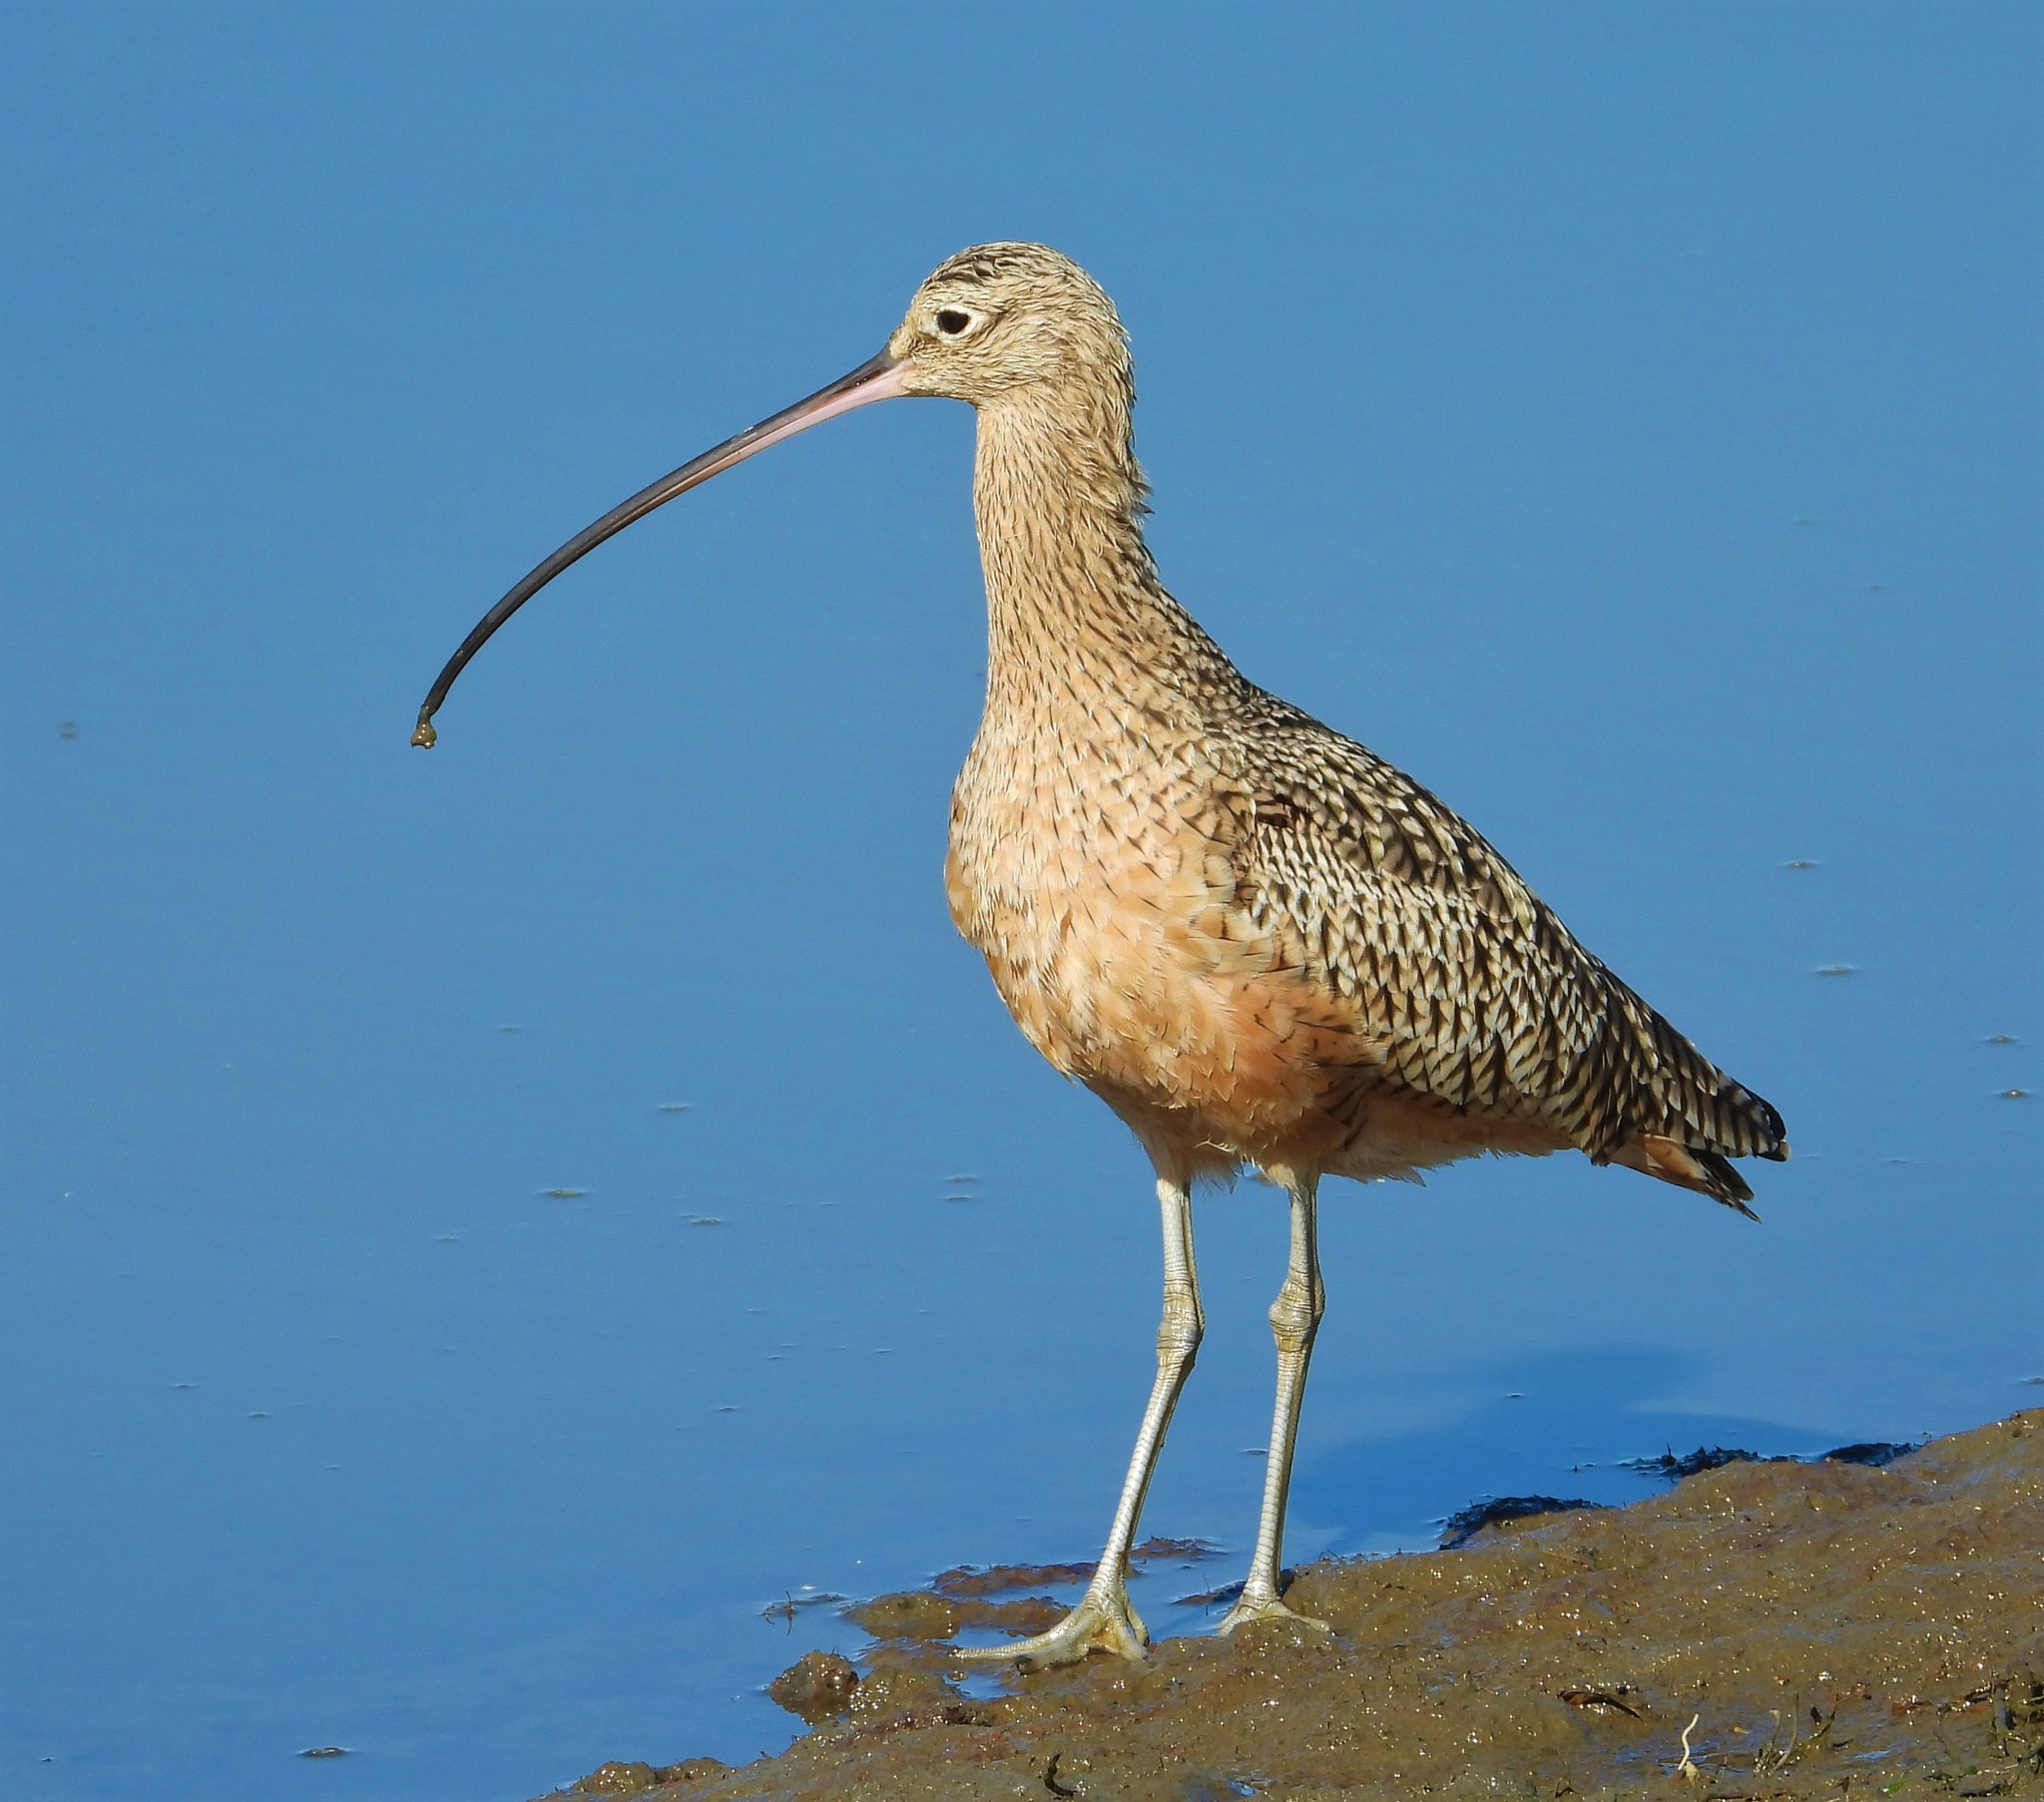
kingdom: Animalia
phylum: Chordata
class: Aves
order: Charadriiformes
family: Scolopacidae
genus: Numenius
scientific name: Numenius americanus
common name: Long-billed curlew
